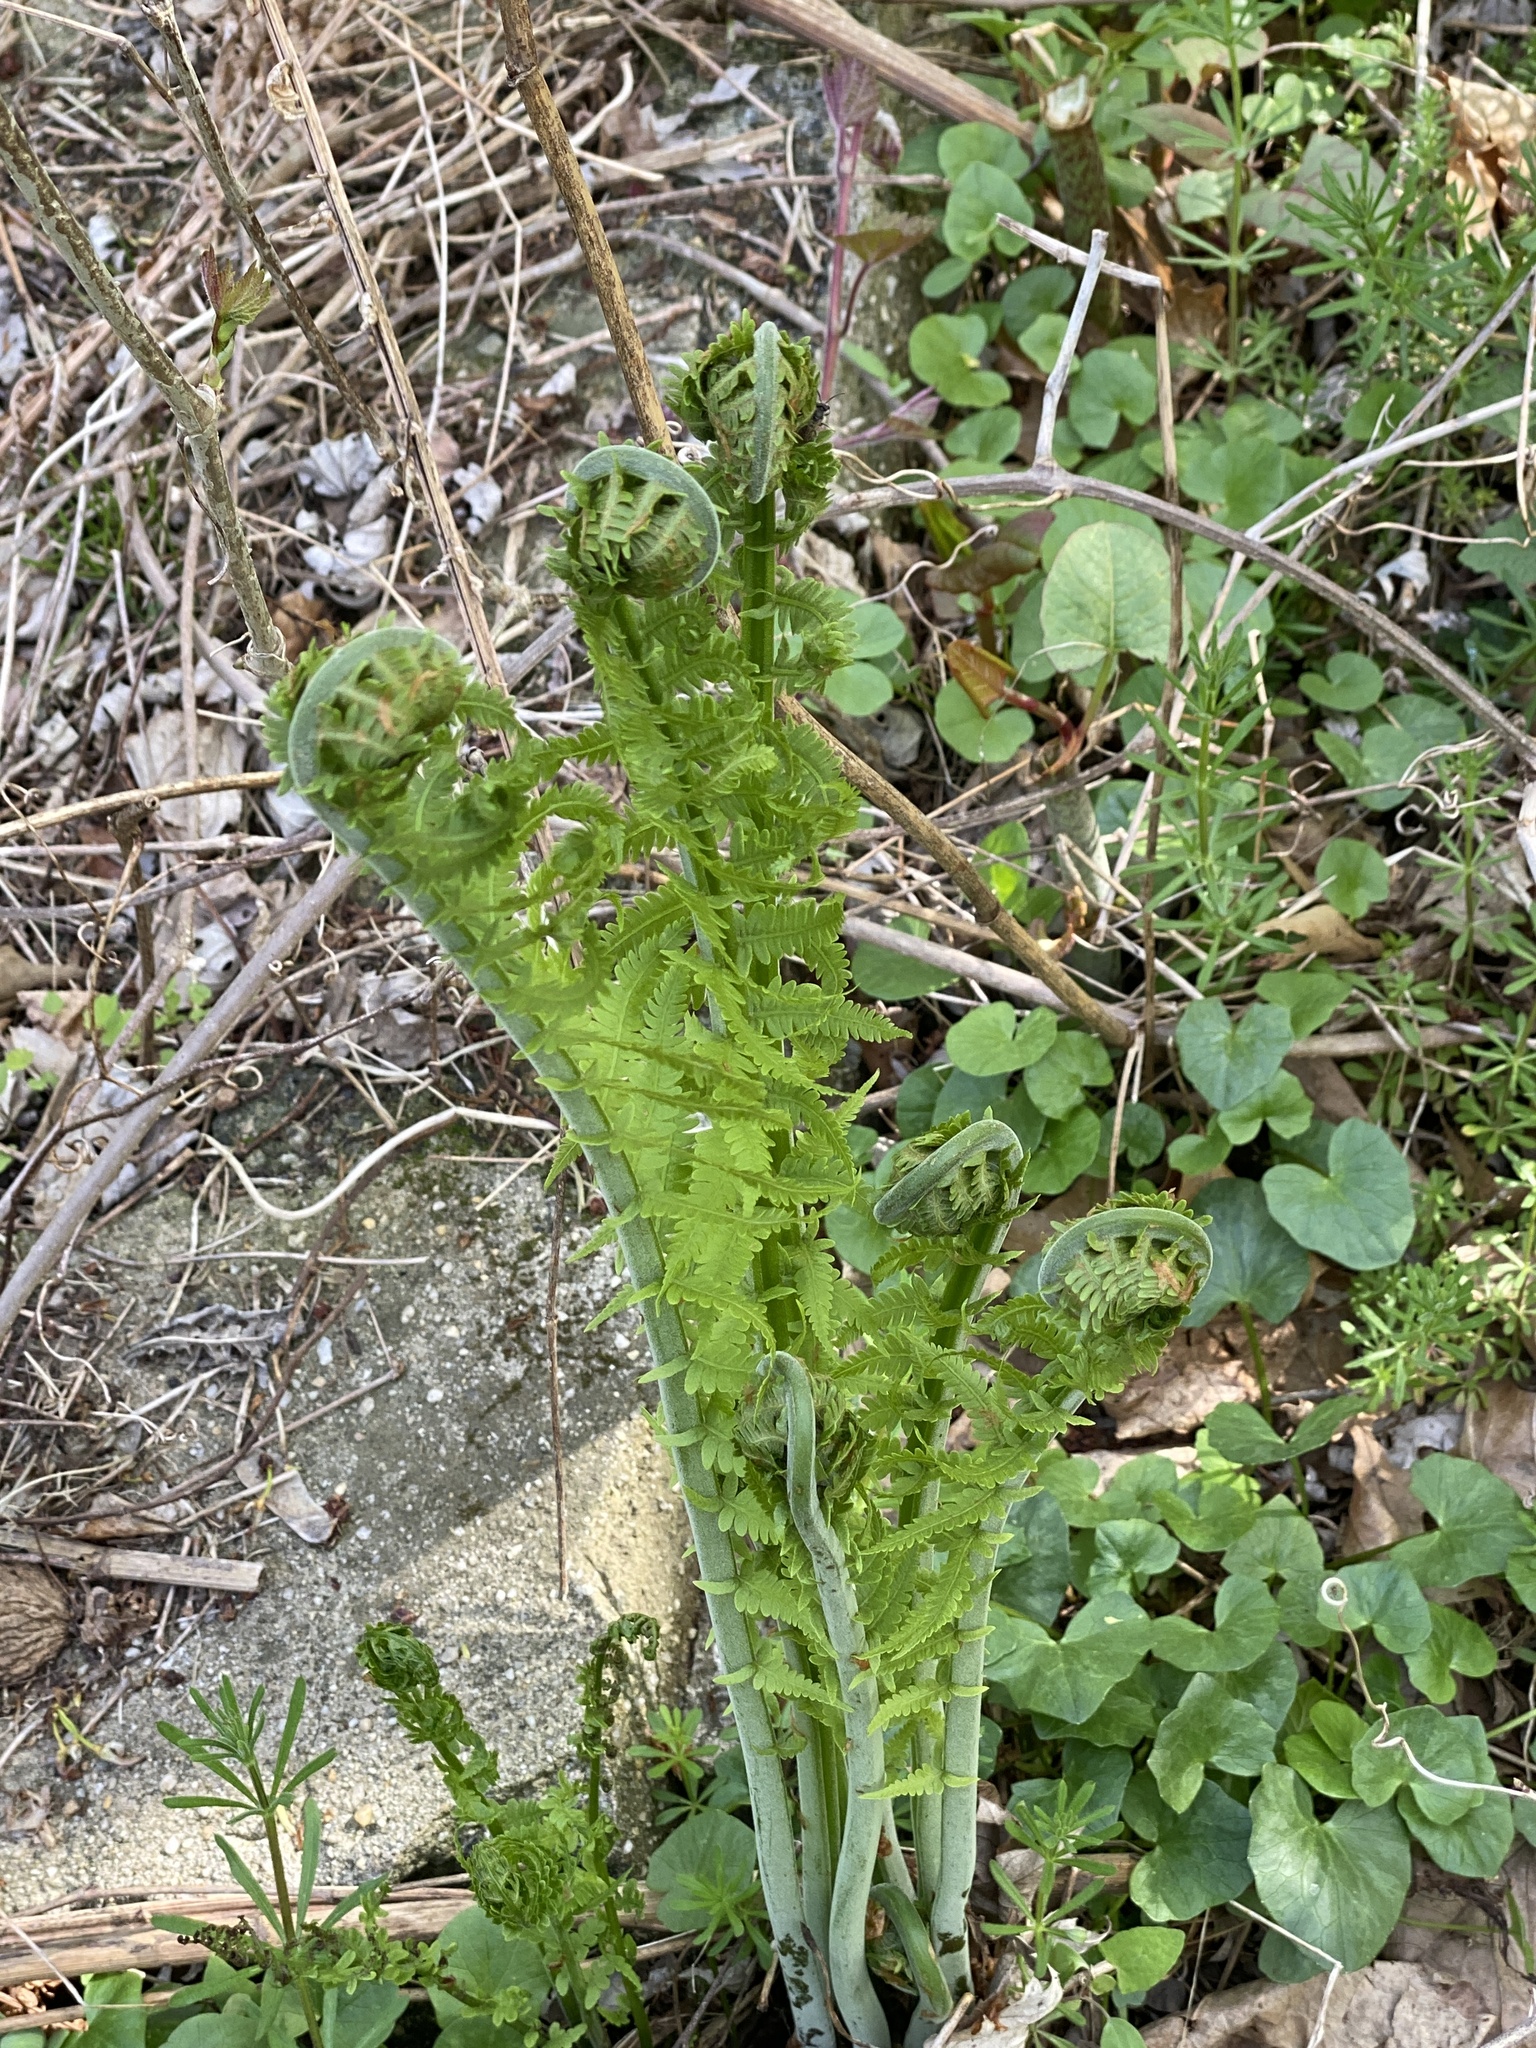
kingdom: Plantae
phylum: Tracheophyta
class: Polypodiopsida
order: Polypodiales
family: Onocleaceae
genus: Matteuccia
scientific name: Matteuccia struthiopteris
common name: Ostrich fern
